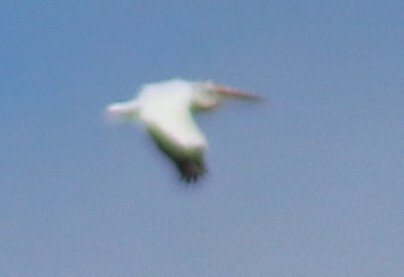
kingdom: Animalia
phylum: Chordata
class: Aves
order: Pelecaniformes
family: Pelecanidae
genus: Pelecanus
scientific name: Pelecanus erythrorhynchos
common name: American white pelican
